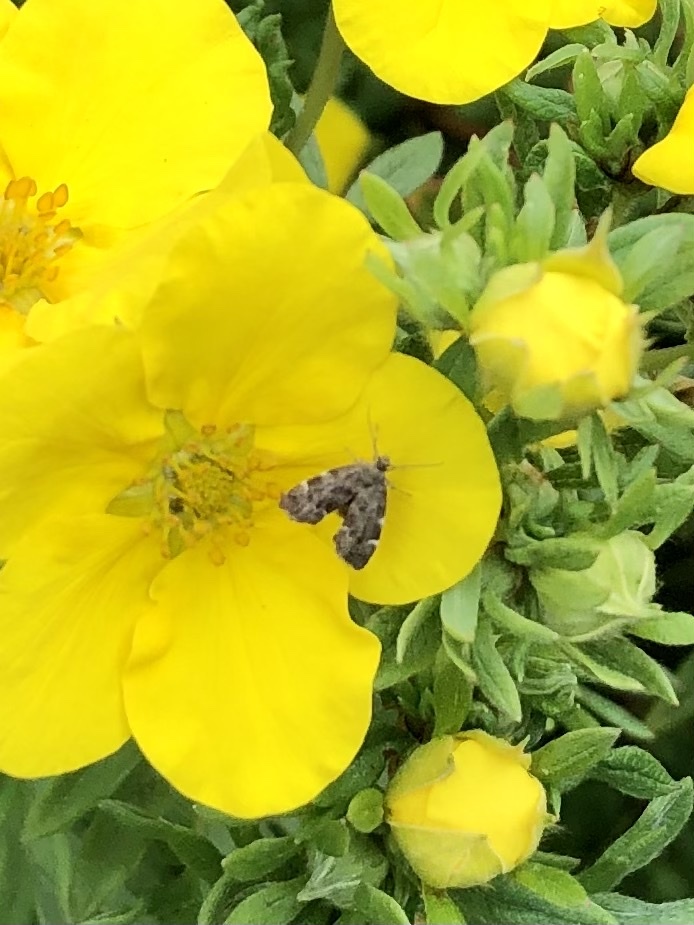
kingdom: Animalia
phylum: Arthropoda
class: Insecta
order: Lepidoptera
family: Choreutidae
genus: Anthophila
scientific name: Anthophila fabriciana
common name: Nettle-tap
